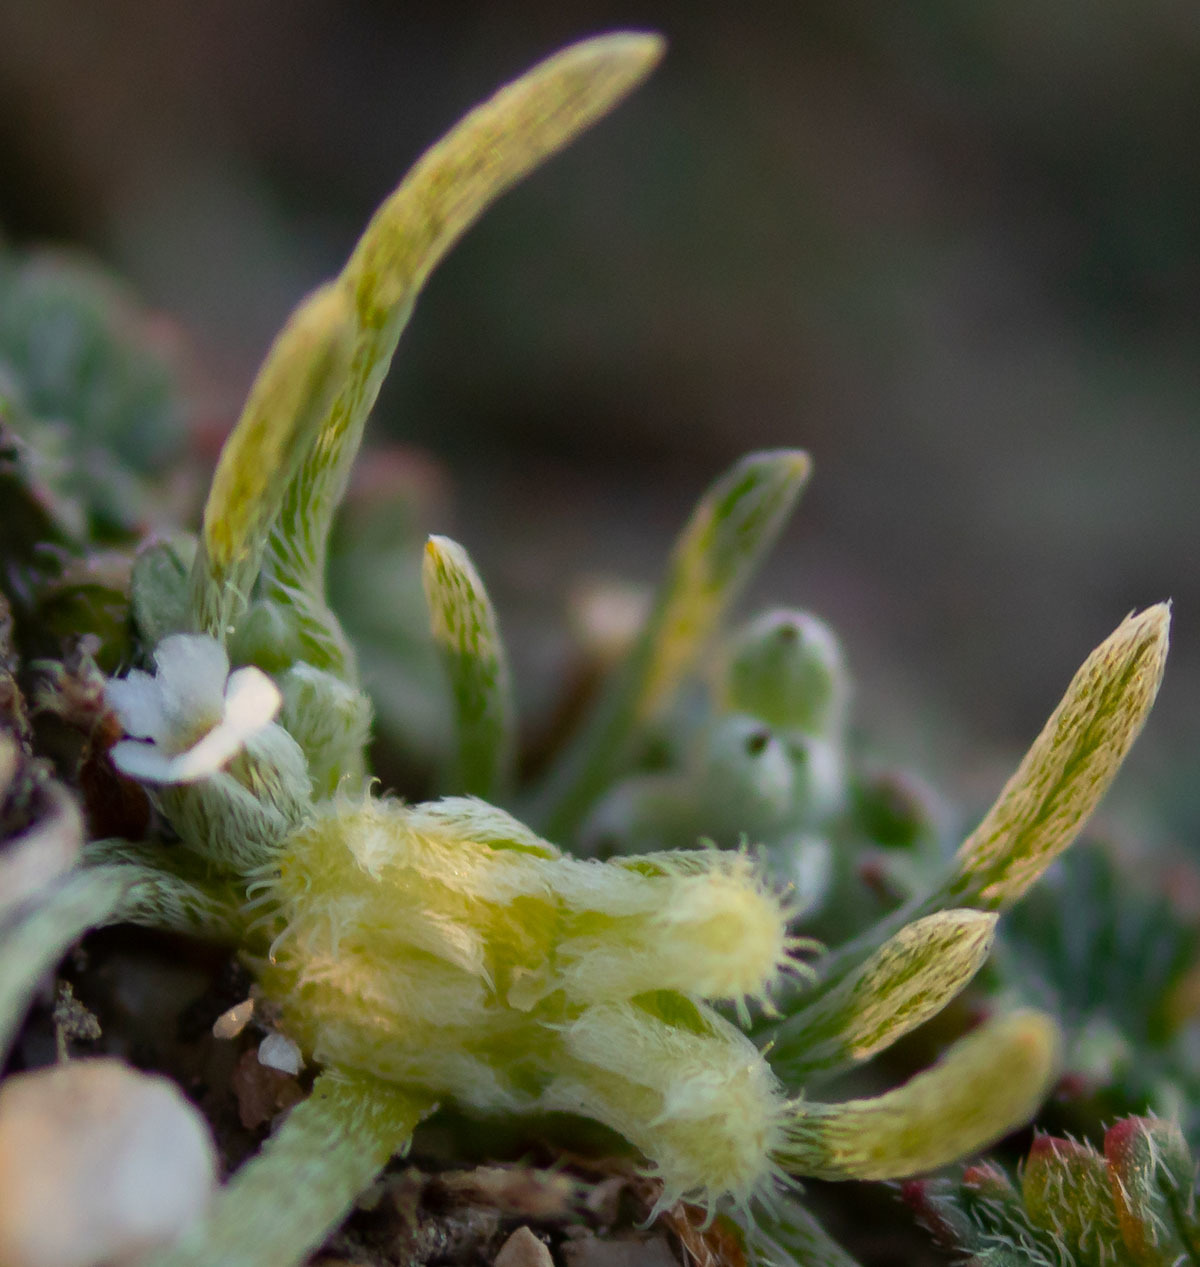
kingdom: Plantae
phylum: Tracheophyta
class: Magnoliopsida
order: Boraginales
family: Boraginaceae
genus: Pectocarya
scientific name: Pectocarya penicillata
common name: Short-leaved combseed
